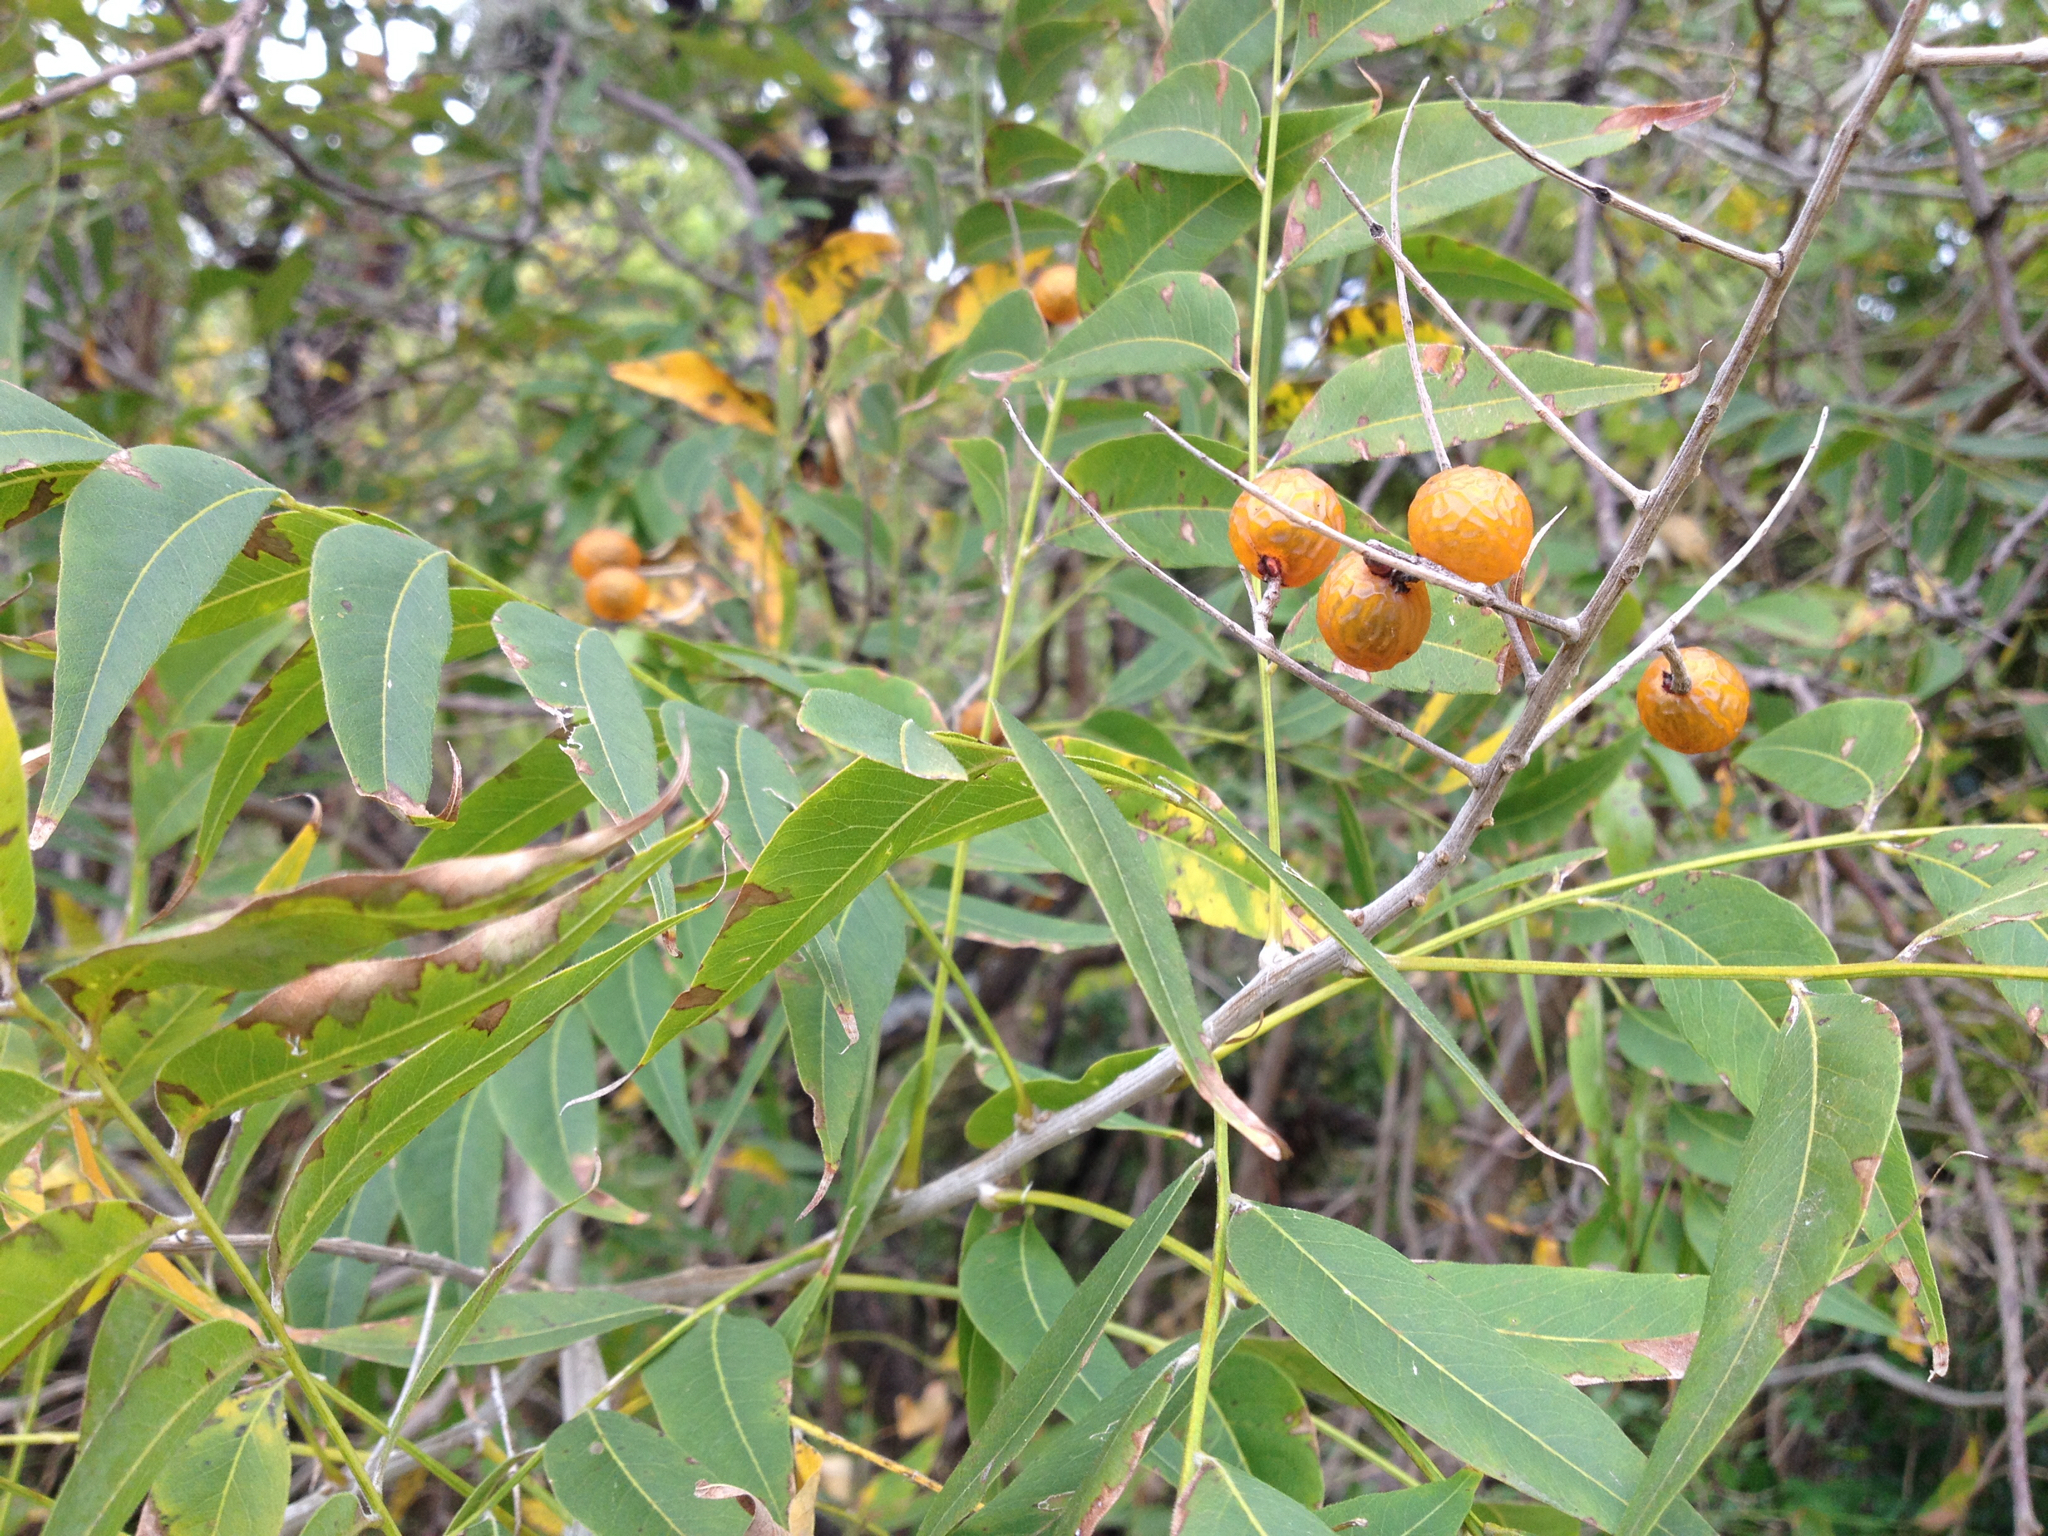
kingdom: Plantae
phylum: Tracheophyta
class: Magnoliopsida
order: Sapindales
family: Sapindaceae
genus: Sapindus
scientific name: Sapindus drummondii
